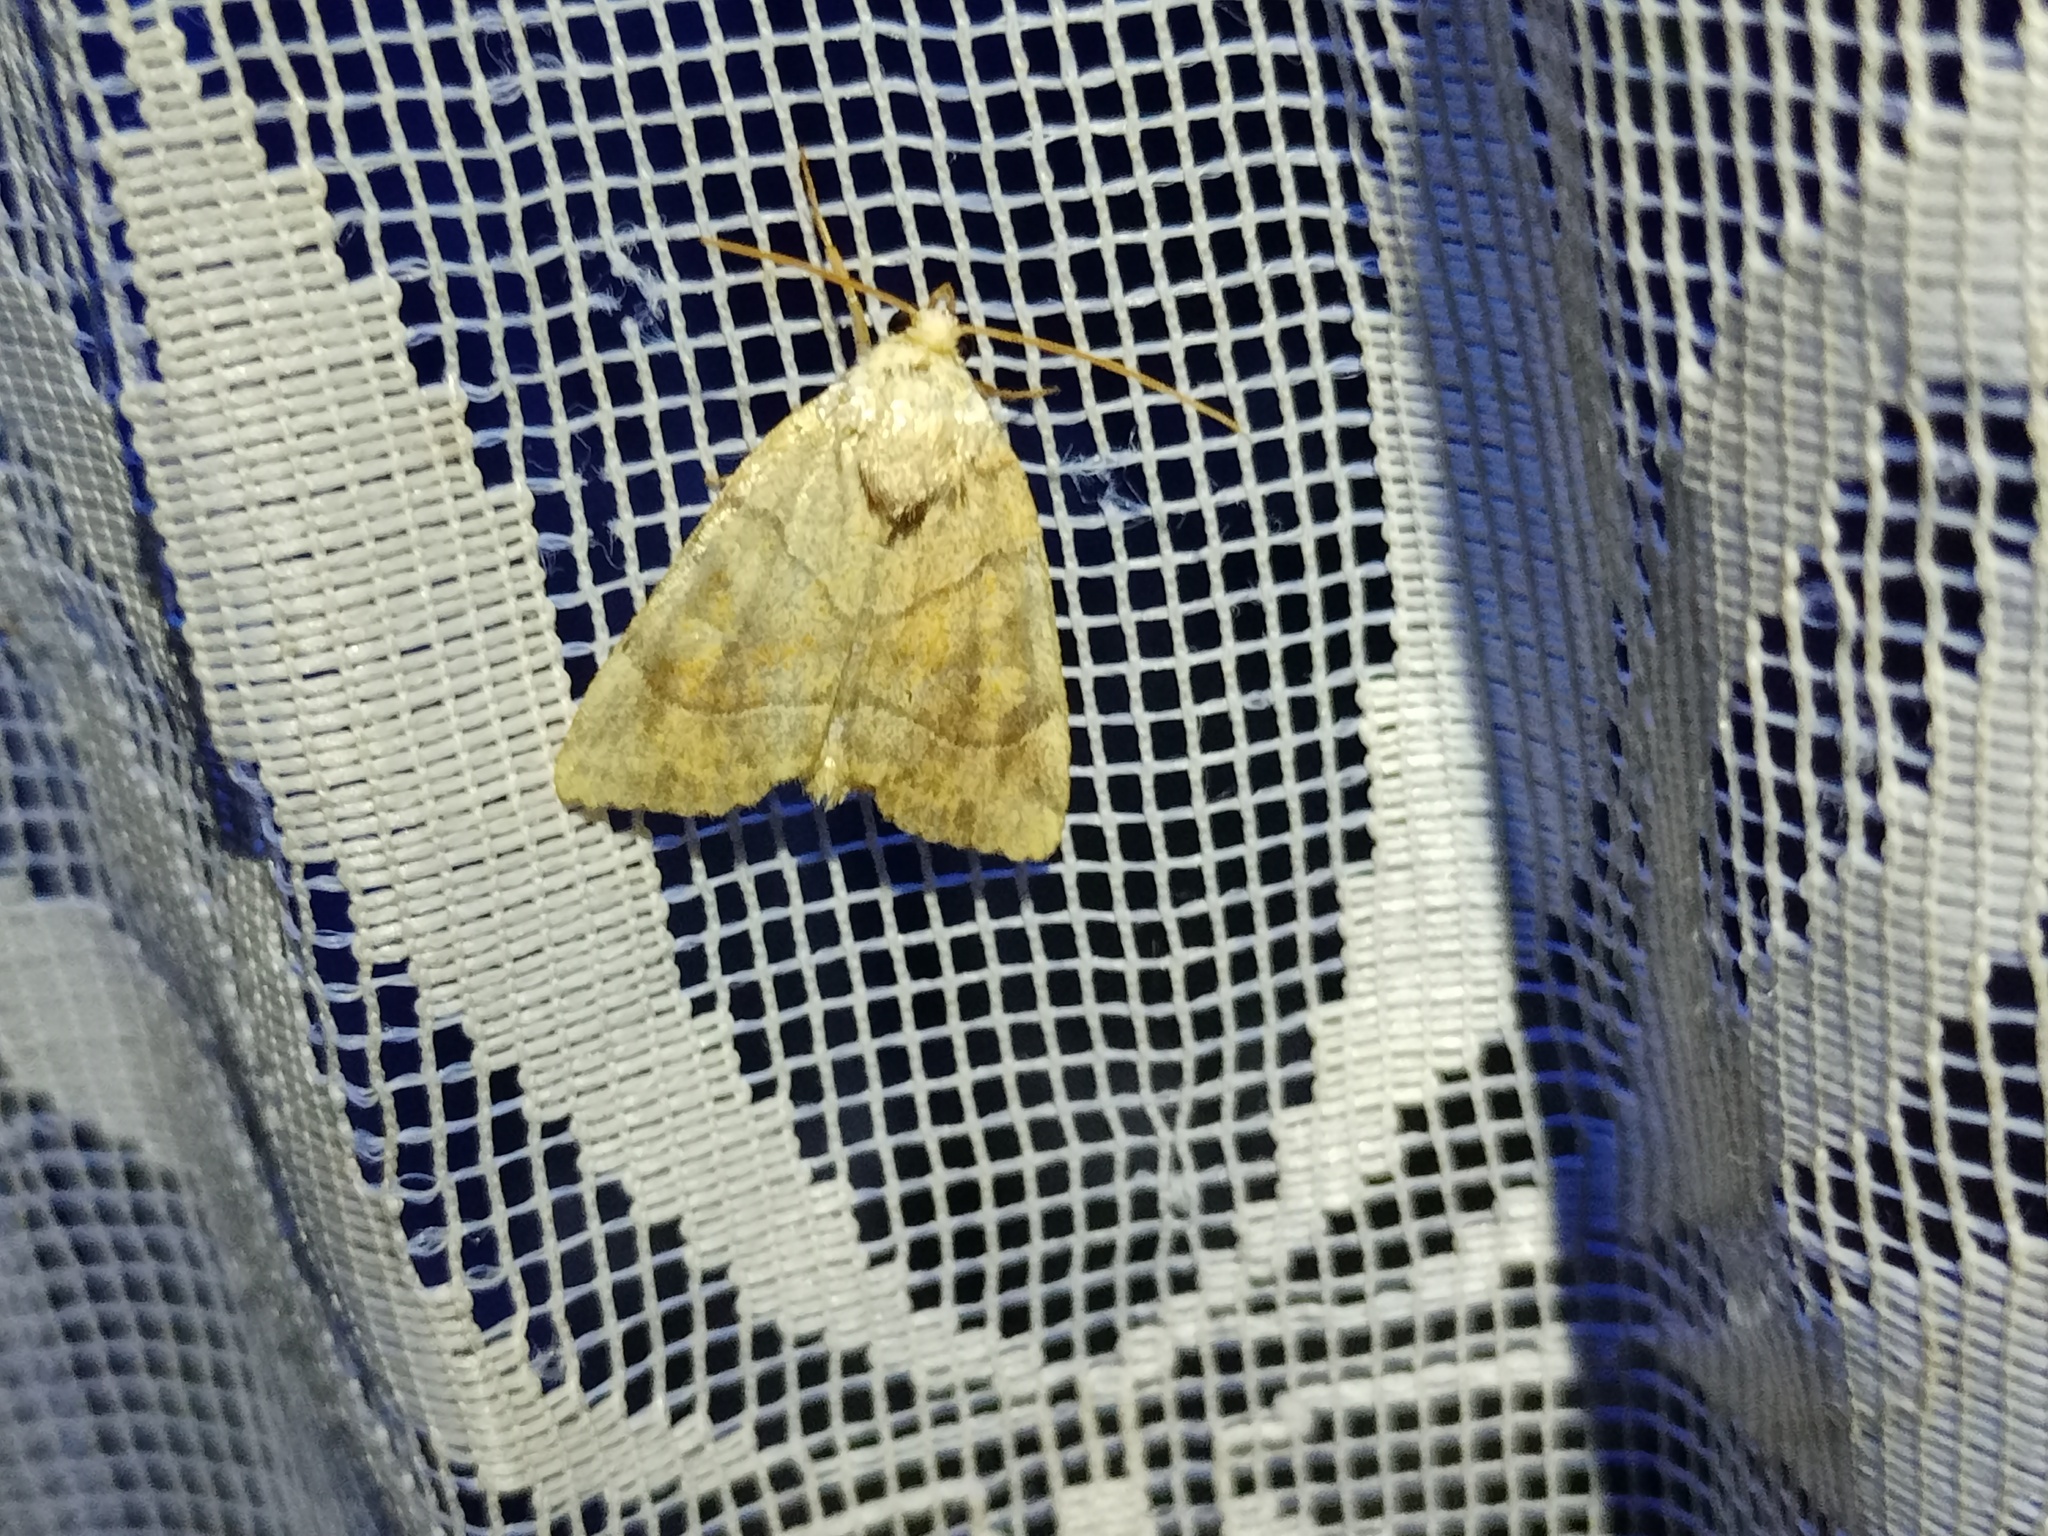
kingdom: Animalia
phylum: Arthropoda
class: Insecta
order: Lepidoptera
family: Noctuidae
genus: Cosmia
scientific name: Cosmia trapezina
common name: Dun-bar
